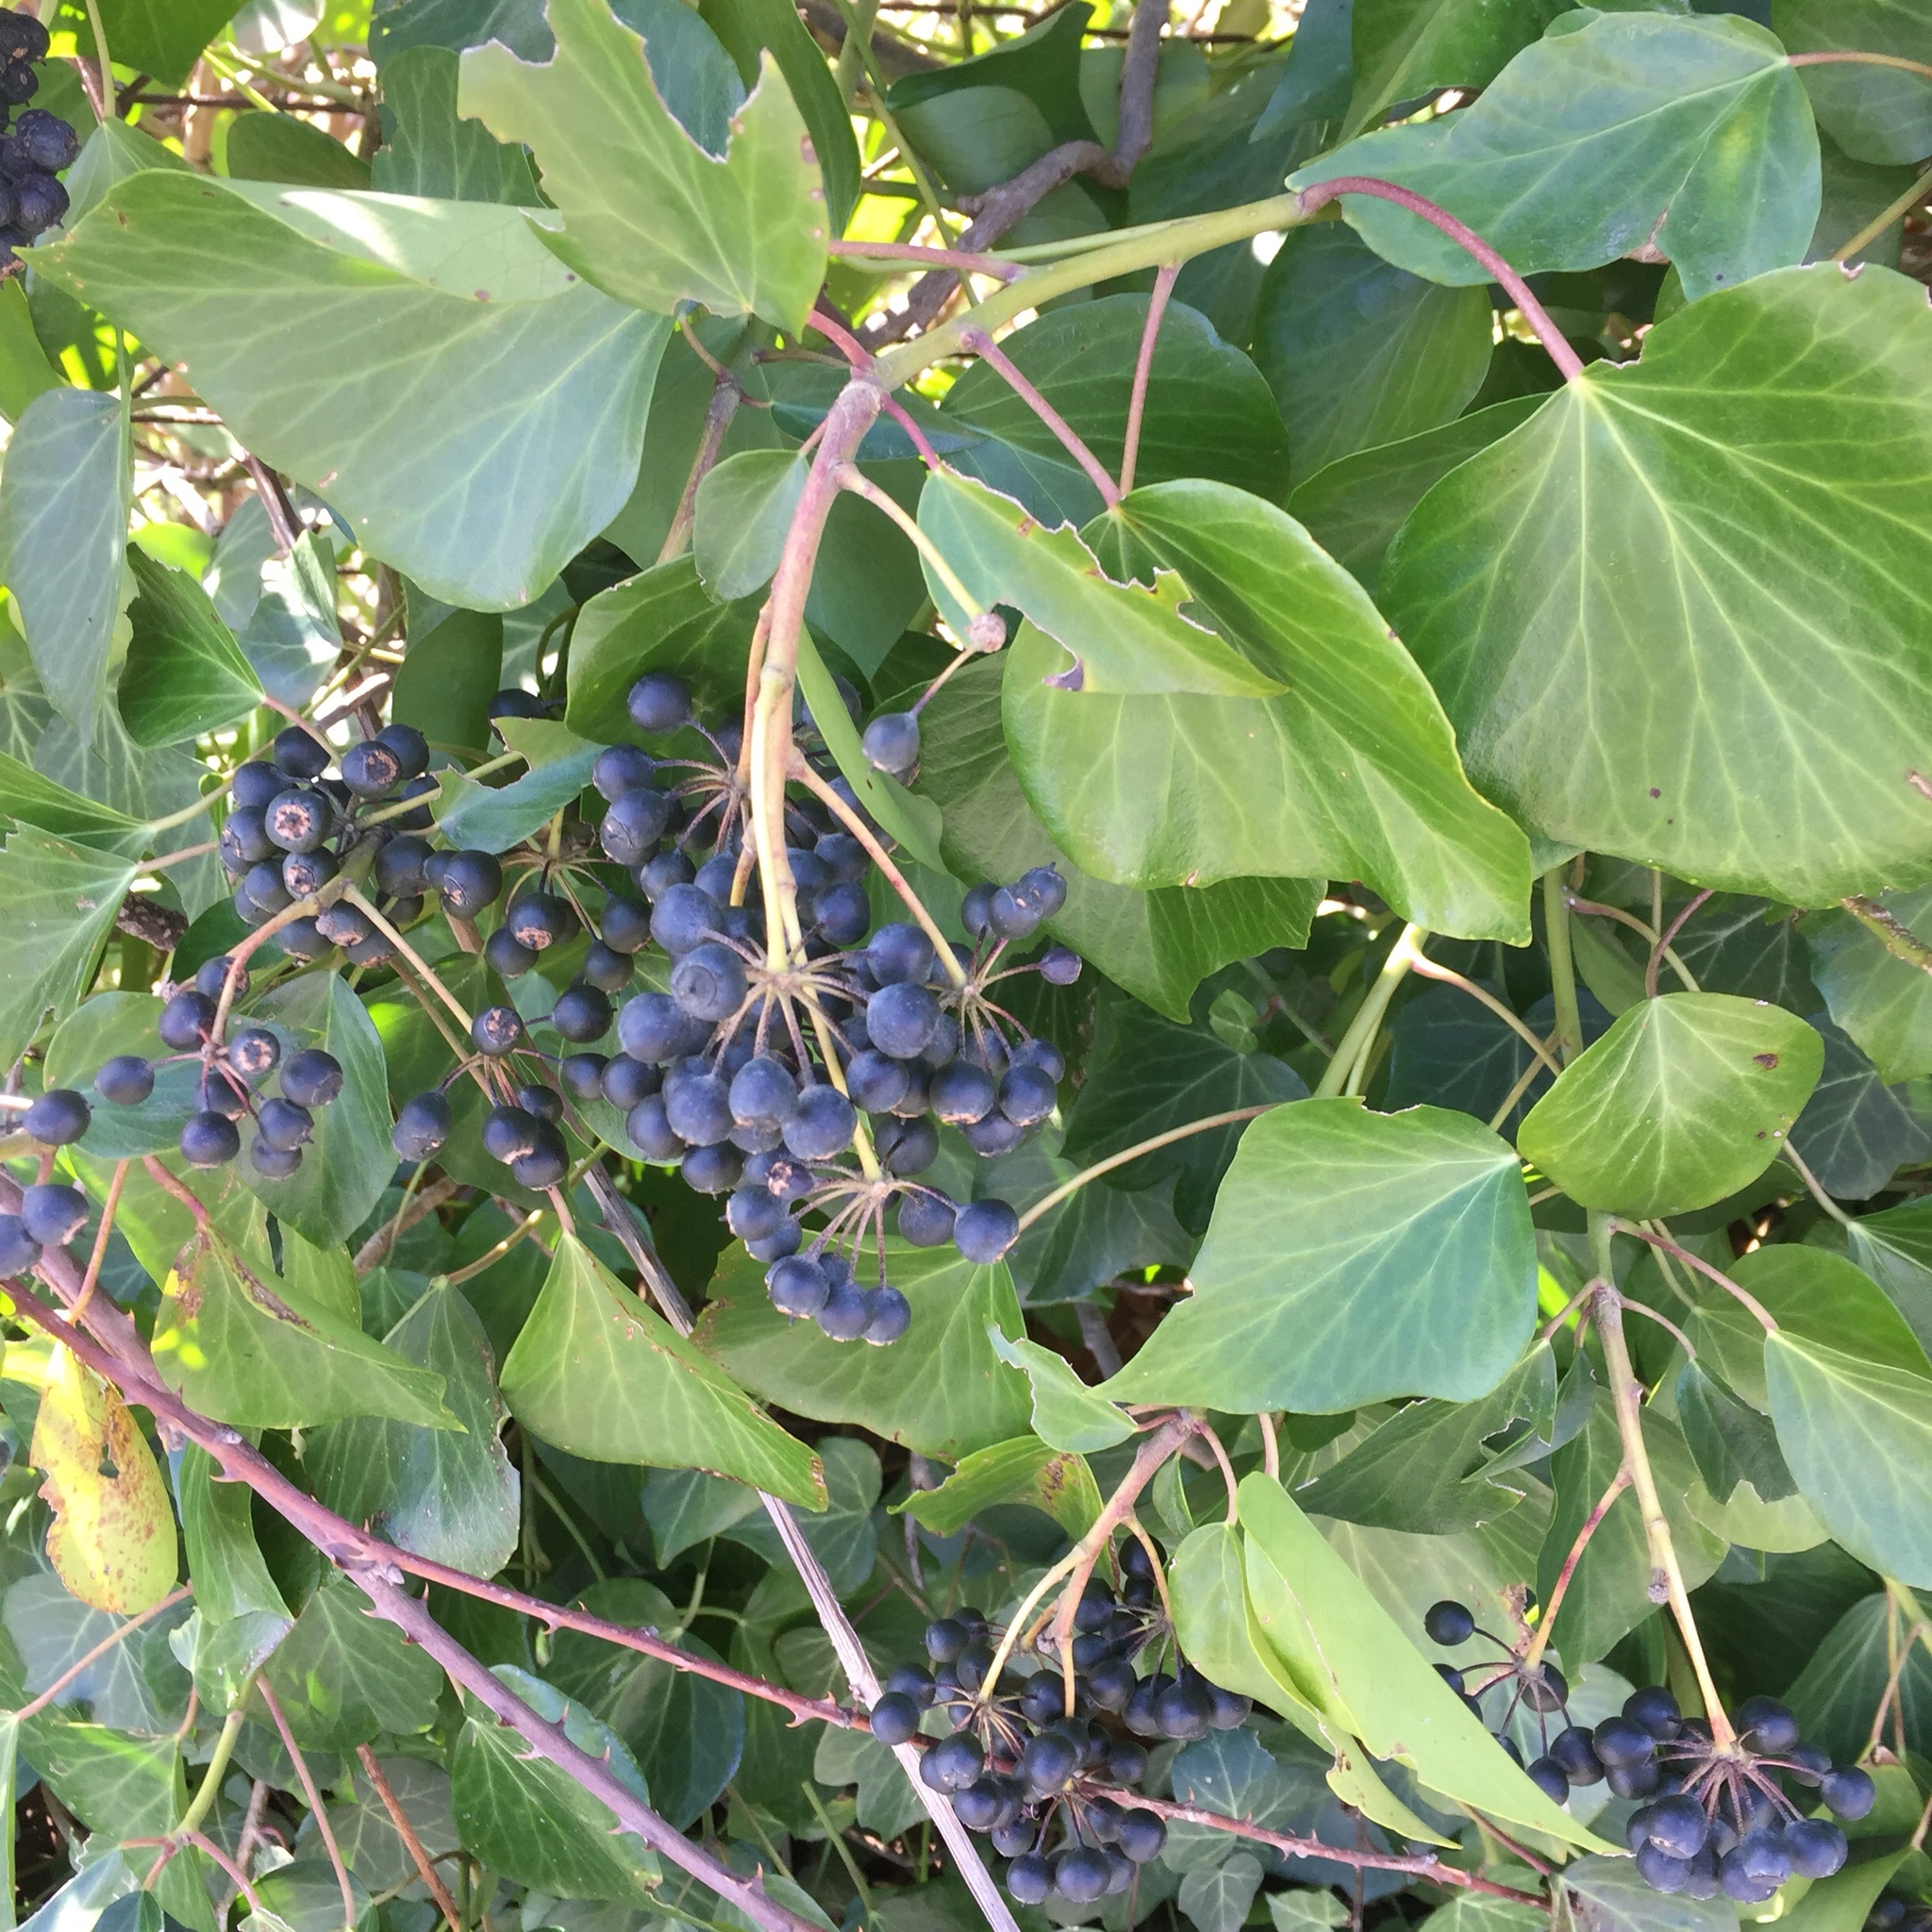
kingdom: Plantae
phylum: Tracheophyta
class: Magnoliopsida
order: Apiales
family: Araliaceae
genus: Hedera
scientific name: Hedera helix
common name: Ivy
